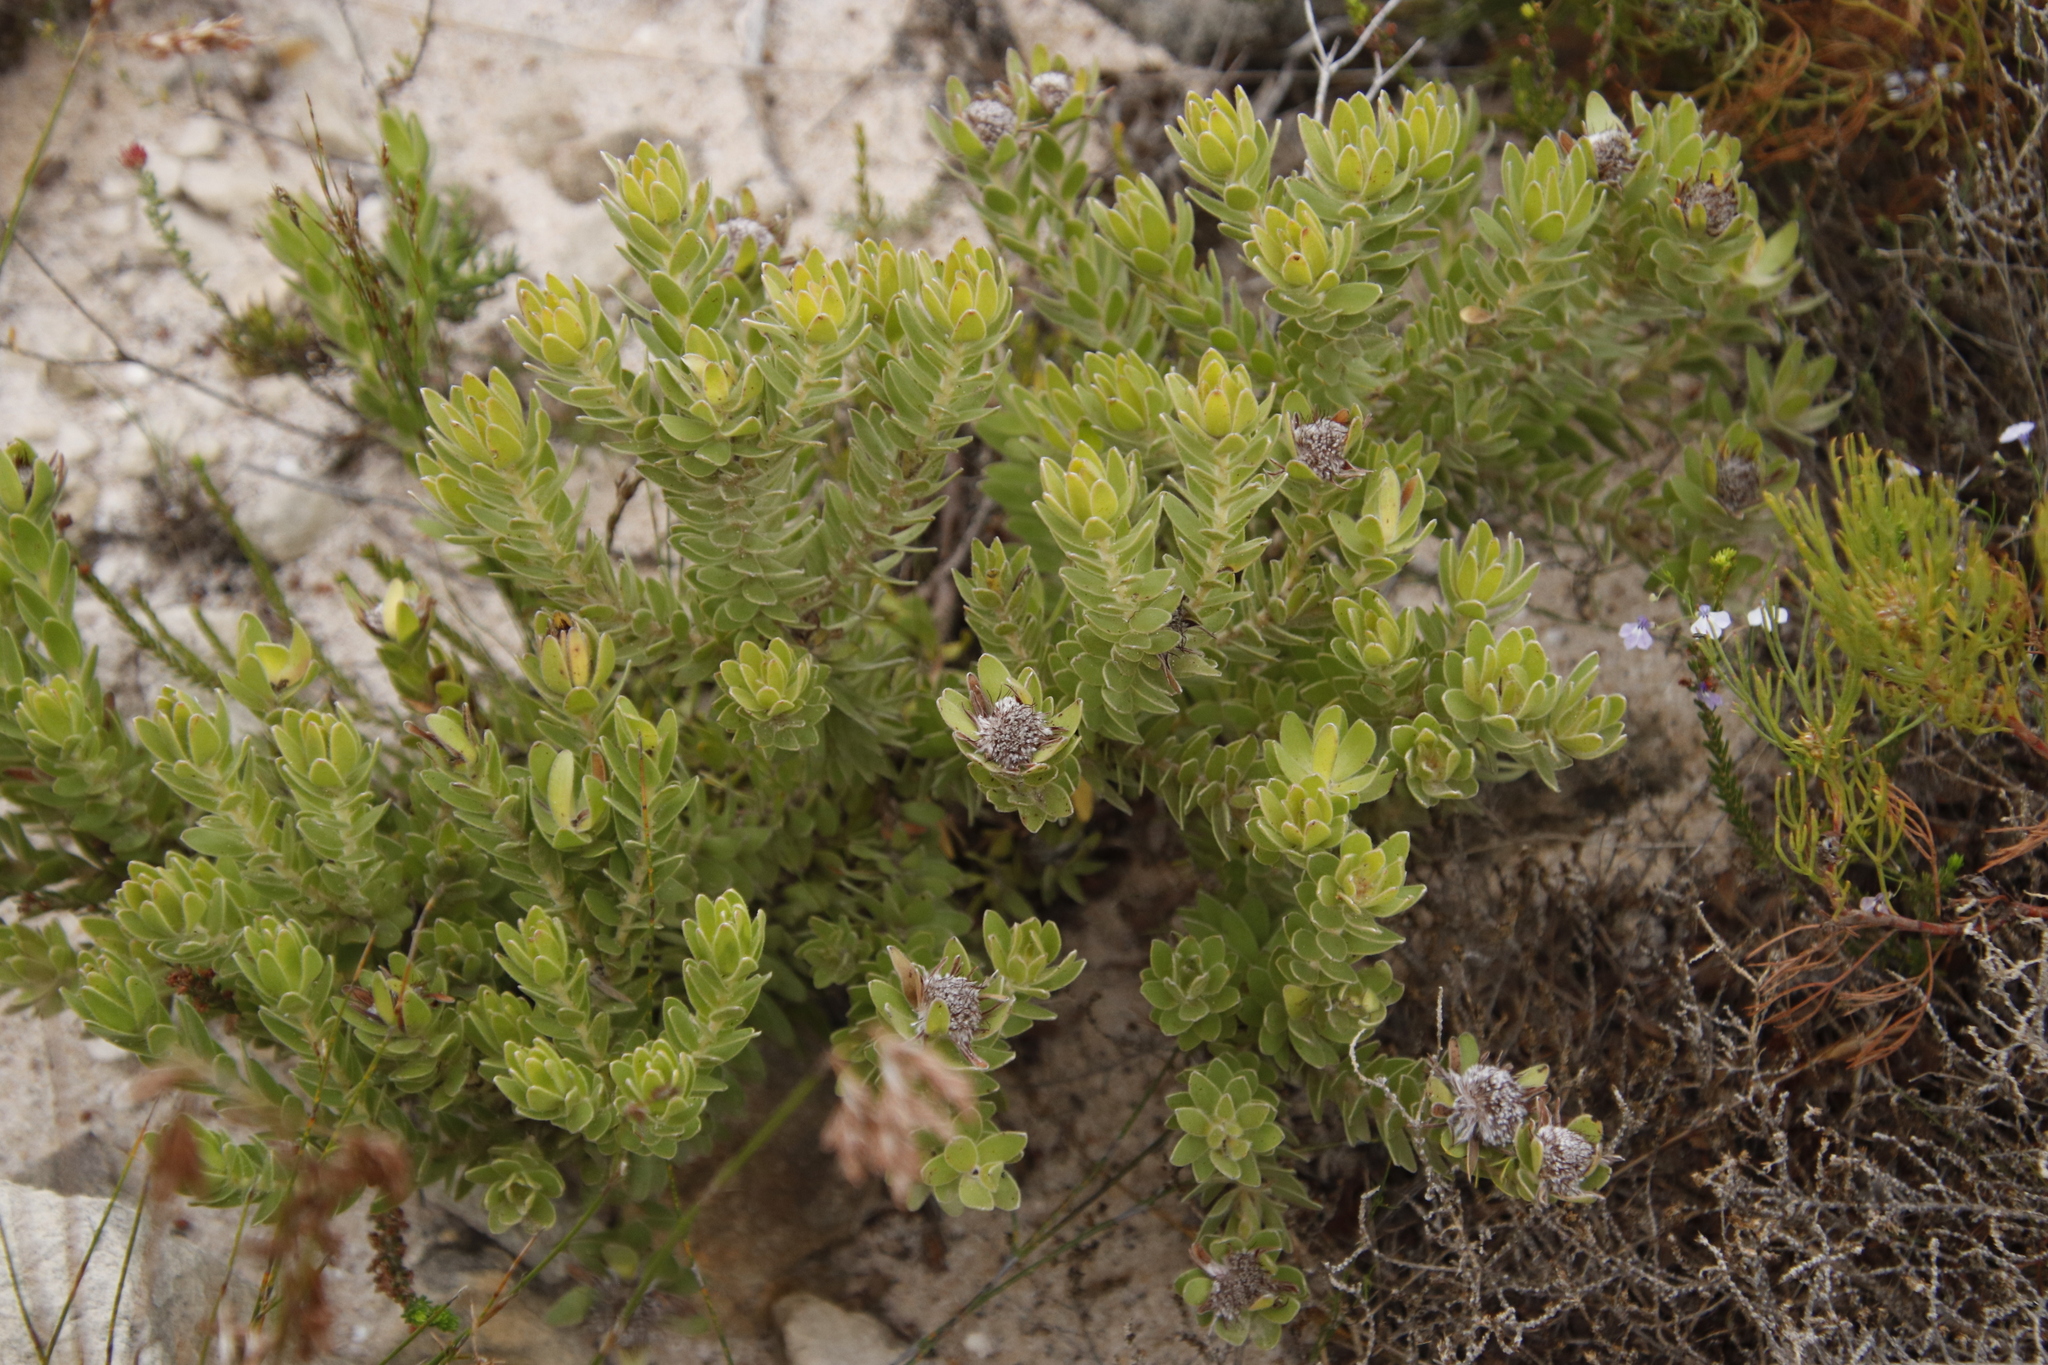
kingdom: Plantae
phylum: Tracheophyta
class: Magnoliopsida
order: Proteales
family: Proteaceae
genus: Diastella
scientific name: Diastella thymelaeoides
